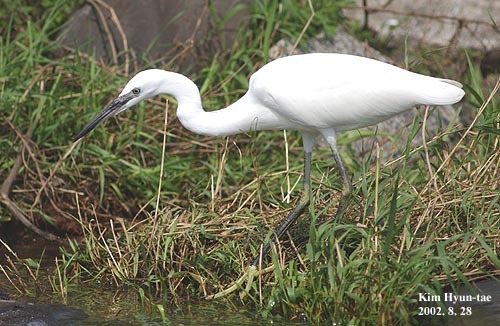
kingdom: Animalia
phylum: Chordata
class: Aves
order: Pelecaniformes
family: Ardeidae
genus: Egretta
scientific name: Egretta garzetta
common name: Little egret
